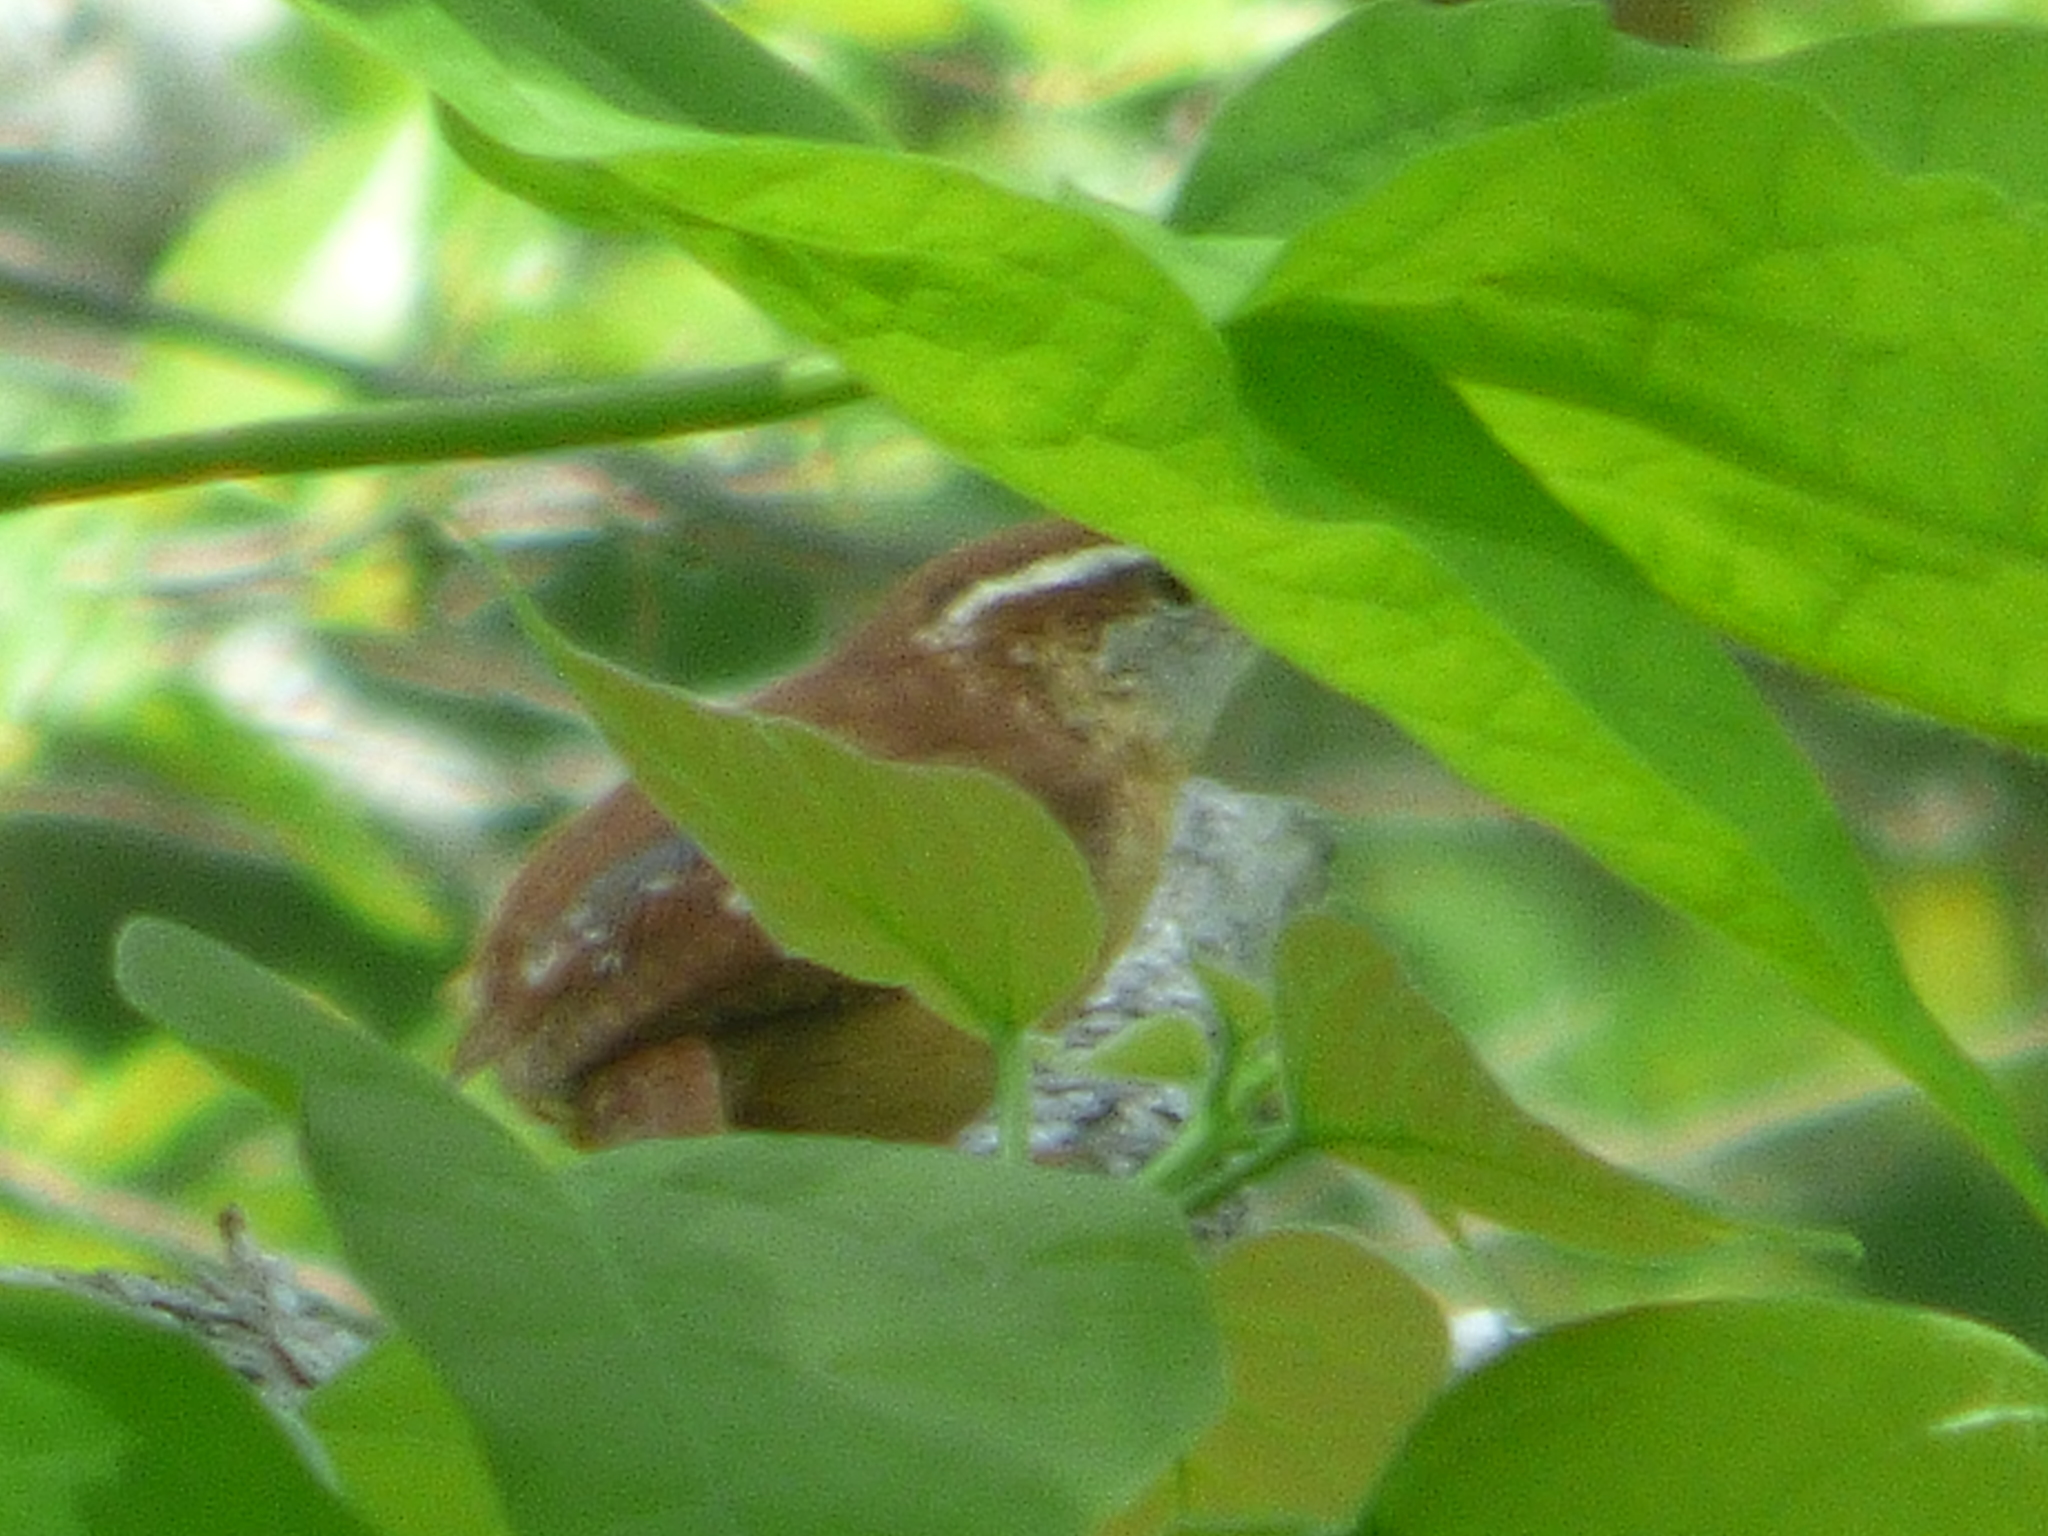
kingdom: Animalia
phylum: Chordata
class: Aves
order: Passeriformes
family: Troglodytidae
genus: Thryothorus
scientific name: Thryothorus ludovicianus
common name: Carolina wren
